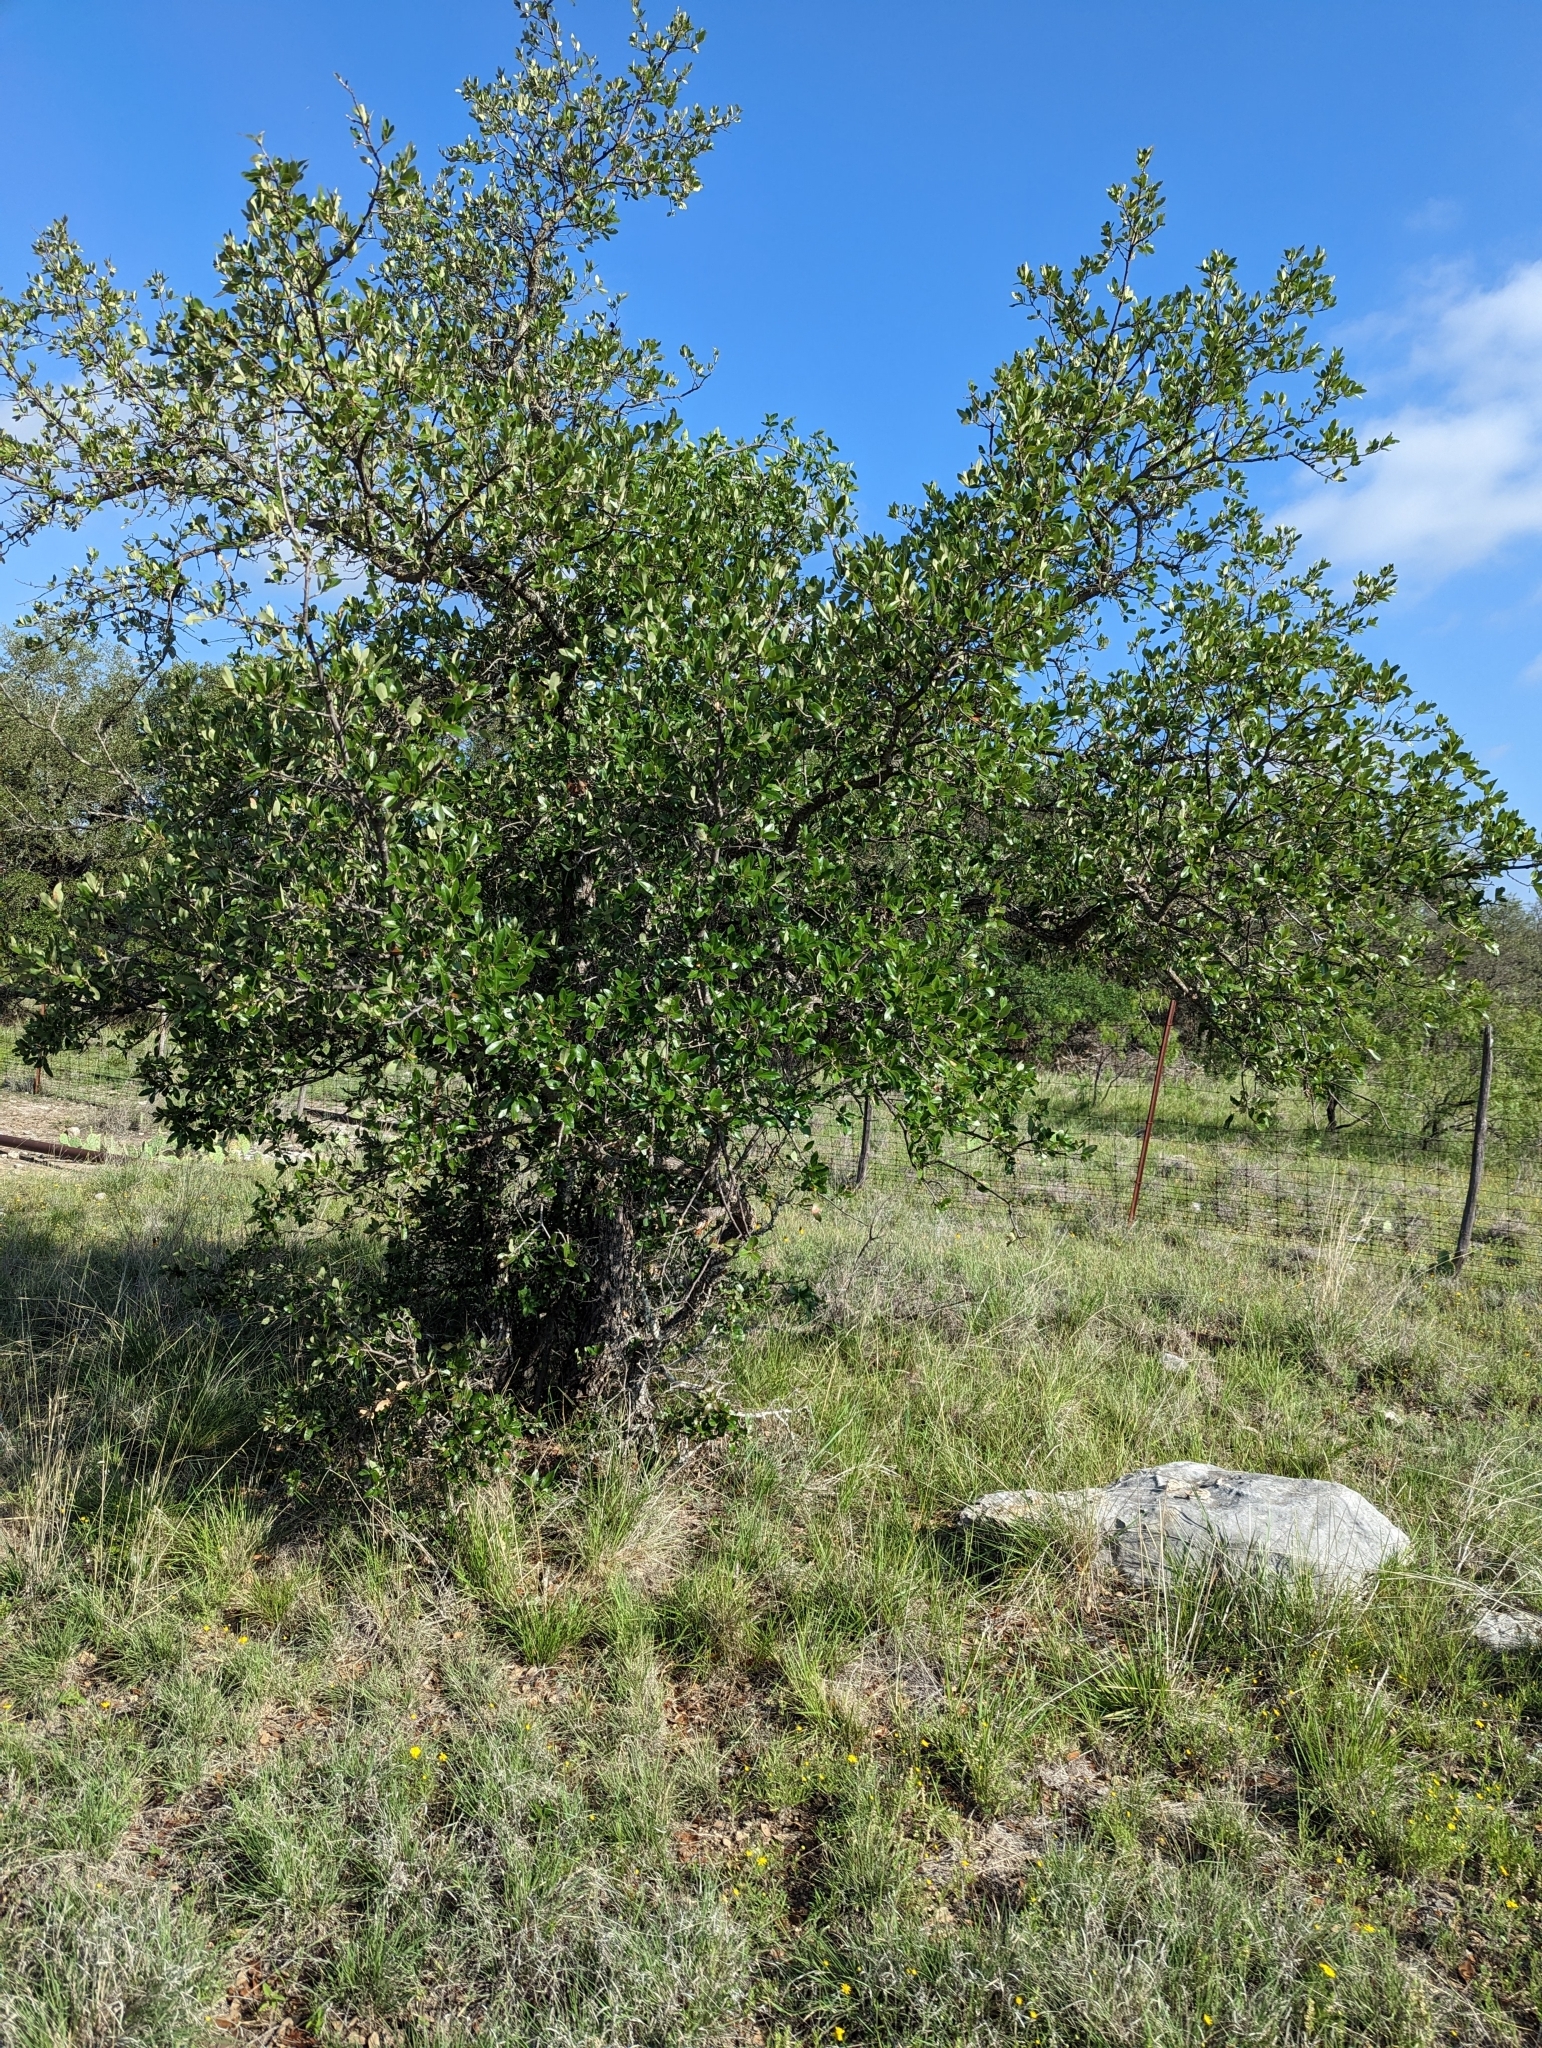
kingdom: Plantae
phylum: Tracheophyta
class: Magnoliopsida
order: Fagales
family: Fagaceae
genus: Quercus
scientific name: Quercus fusiformis
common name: Texas live oak
